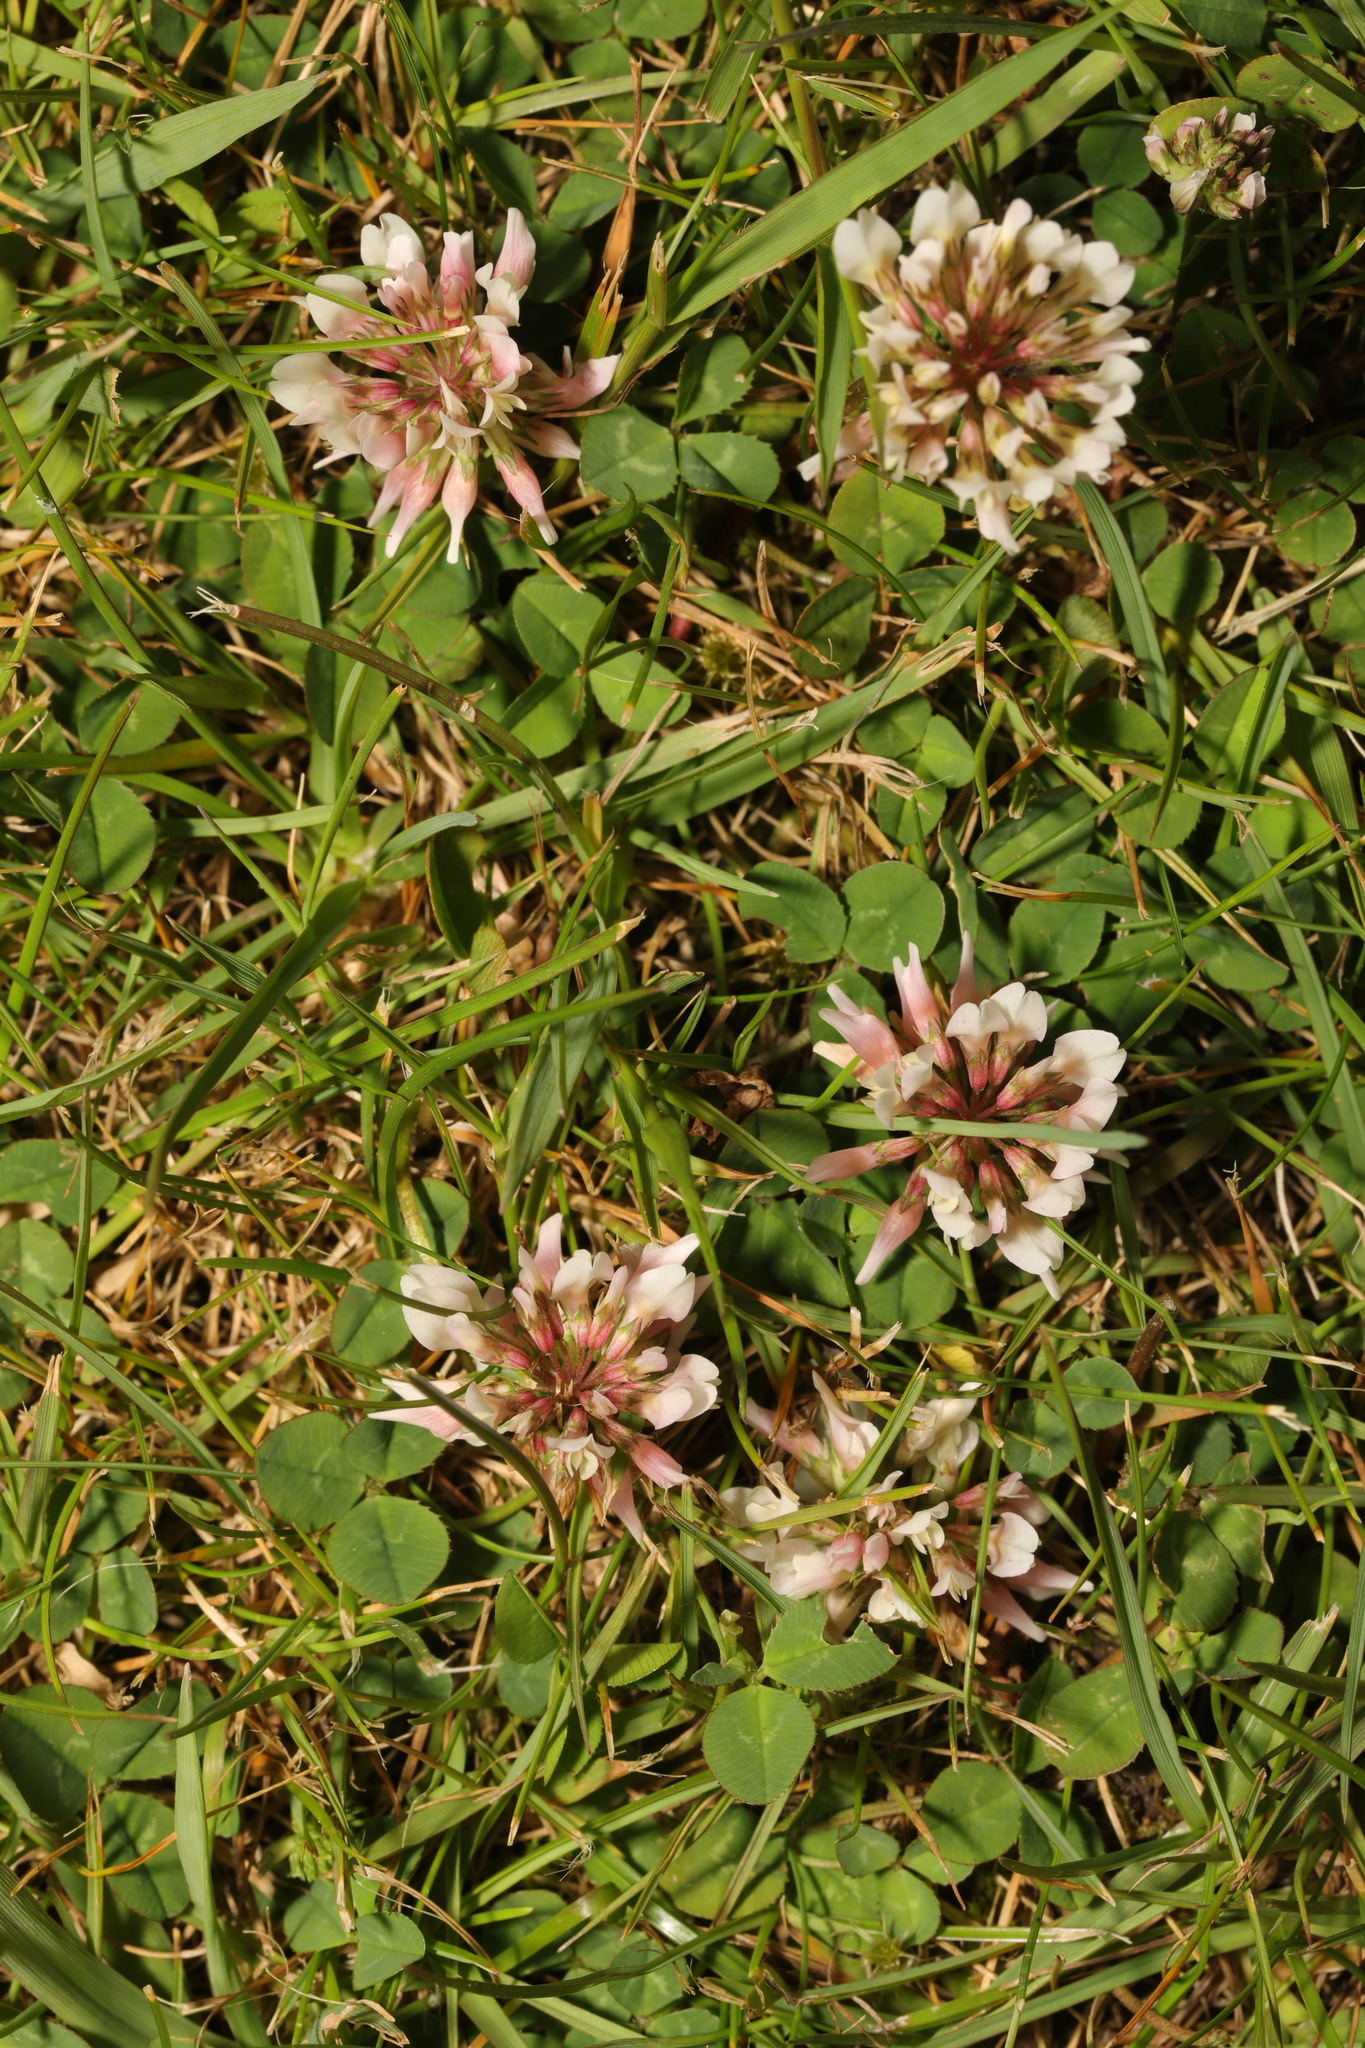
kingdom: Plantae
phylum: Tracheophyta
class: Magnoliopsida
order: Fabales
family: Fabaceae
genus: Trifolium
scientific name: Trifolium repens
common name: White clover
